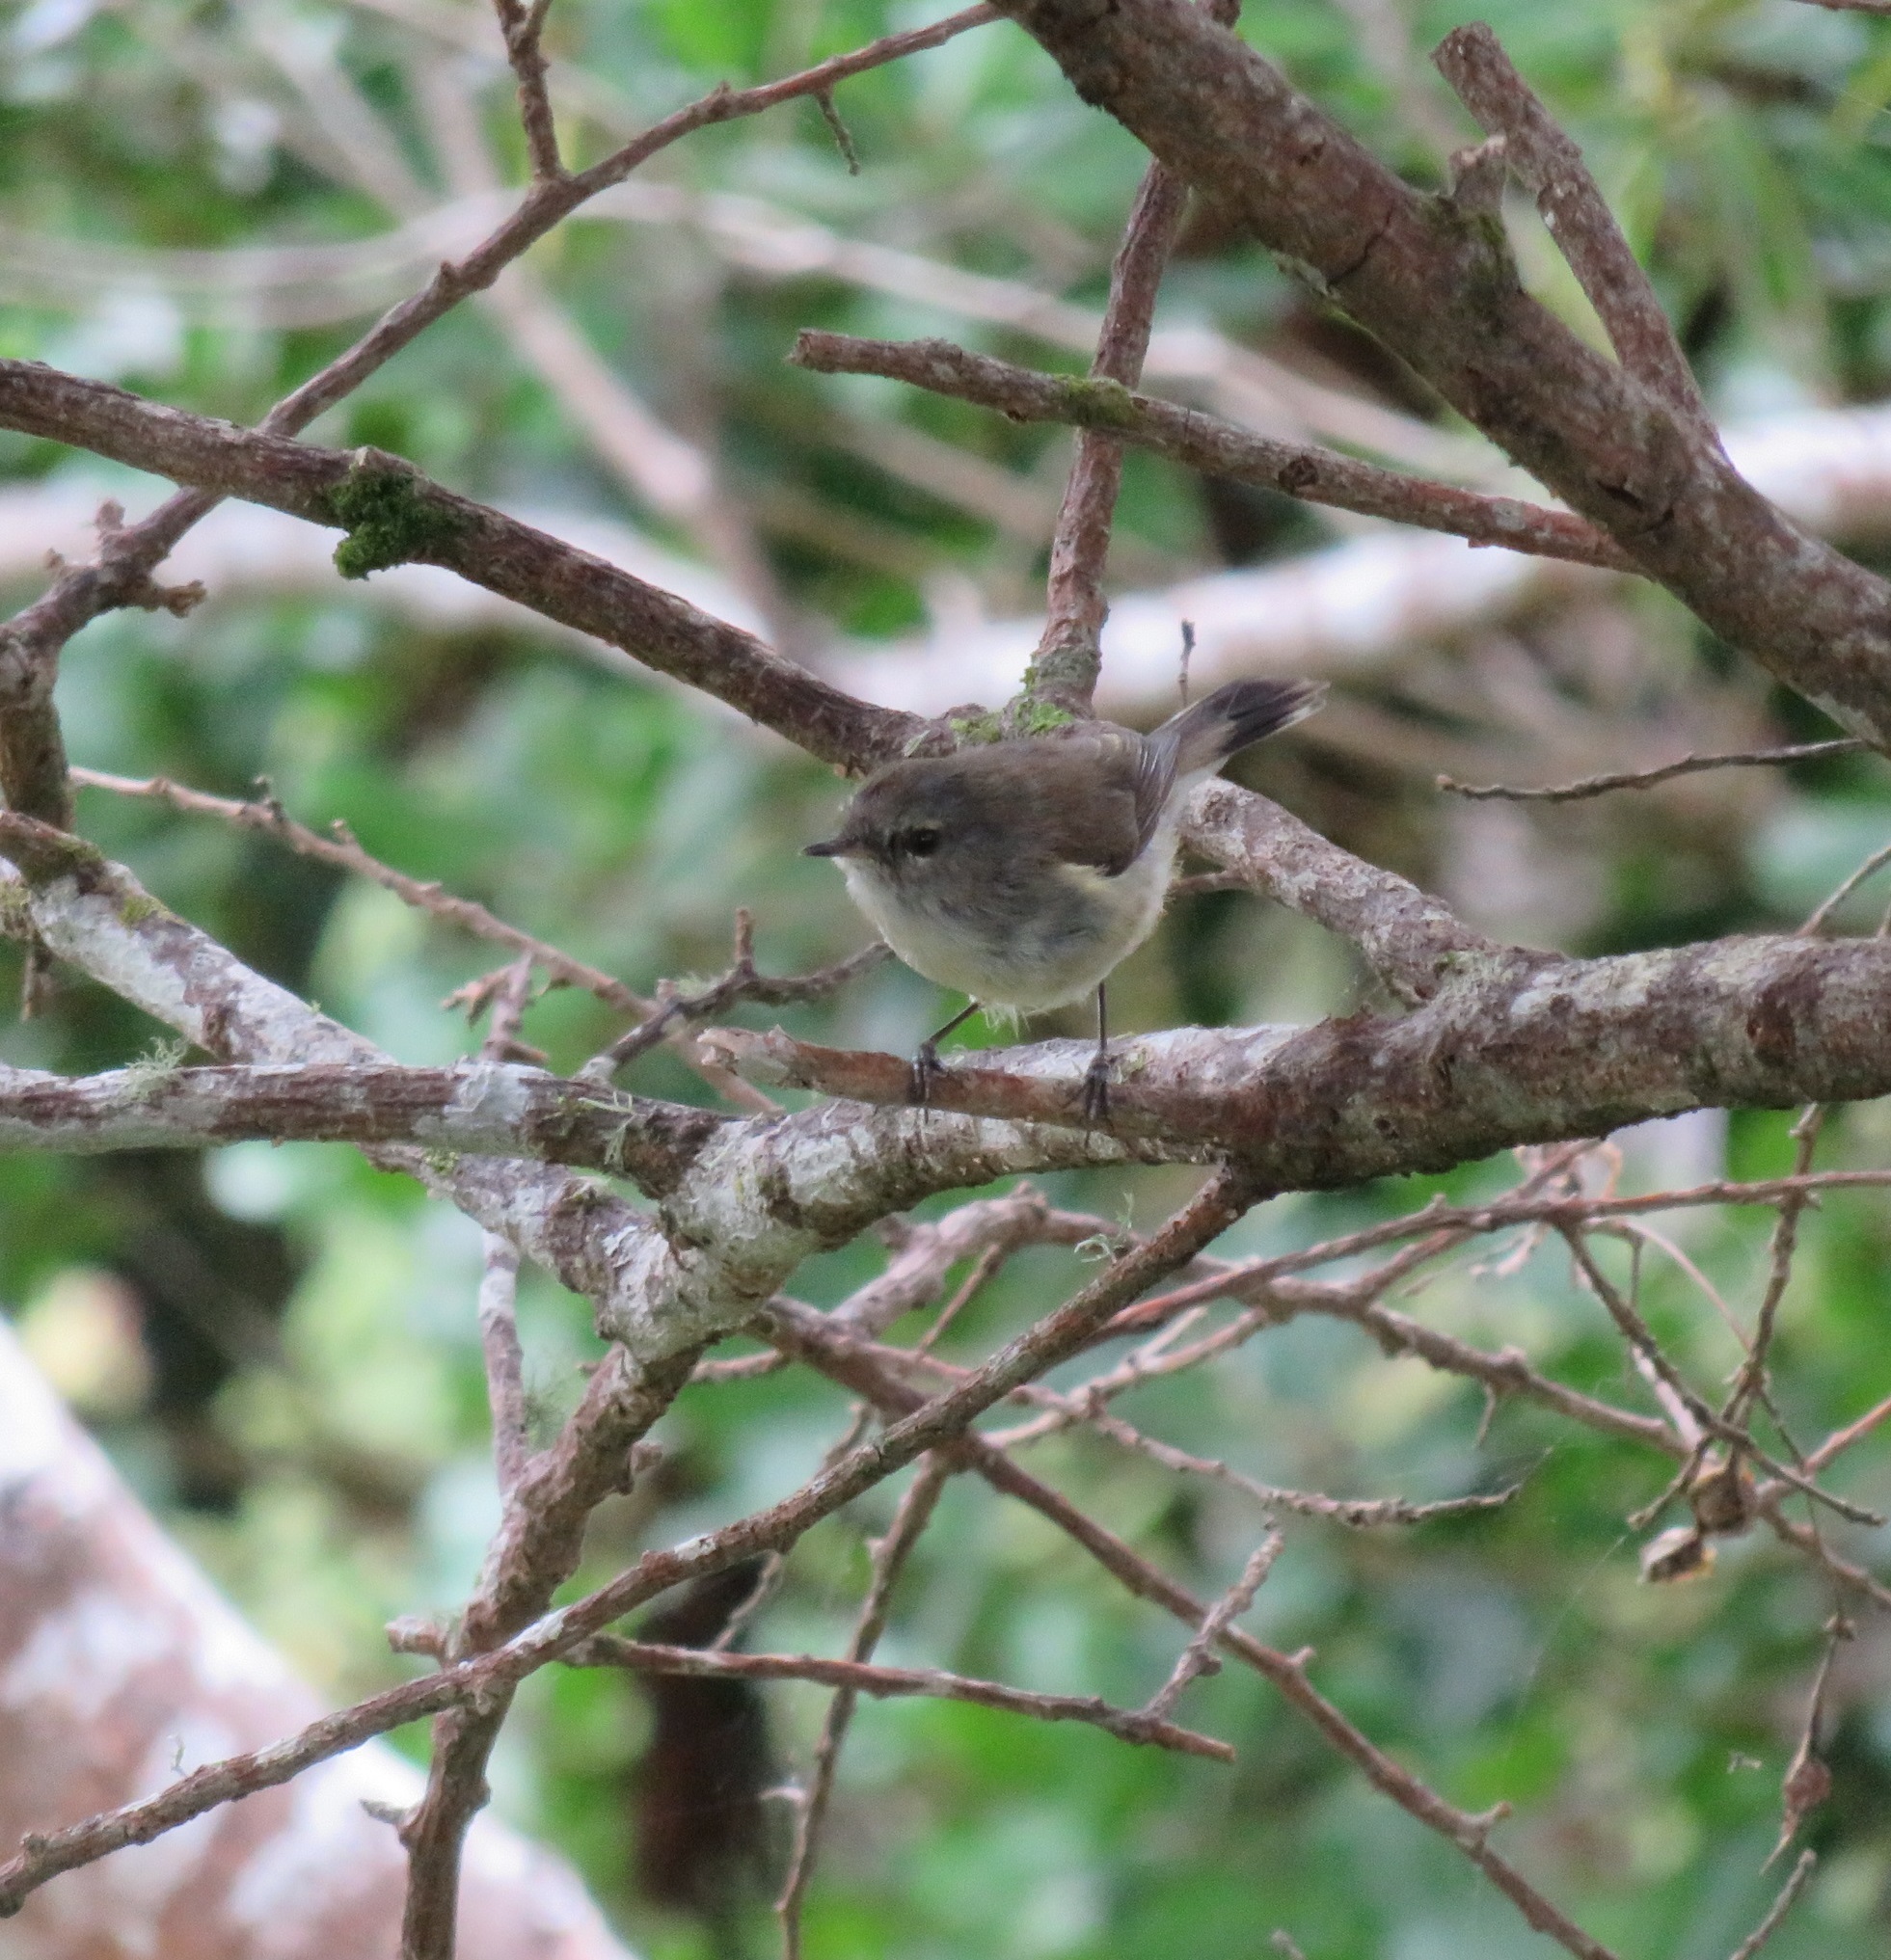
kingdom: Animalia
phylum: Chordata
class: Aves
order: Passeriformes
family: Acanthizidae
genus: Gerygone
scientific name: Gerygone igata
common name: Grey gerygone
